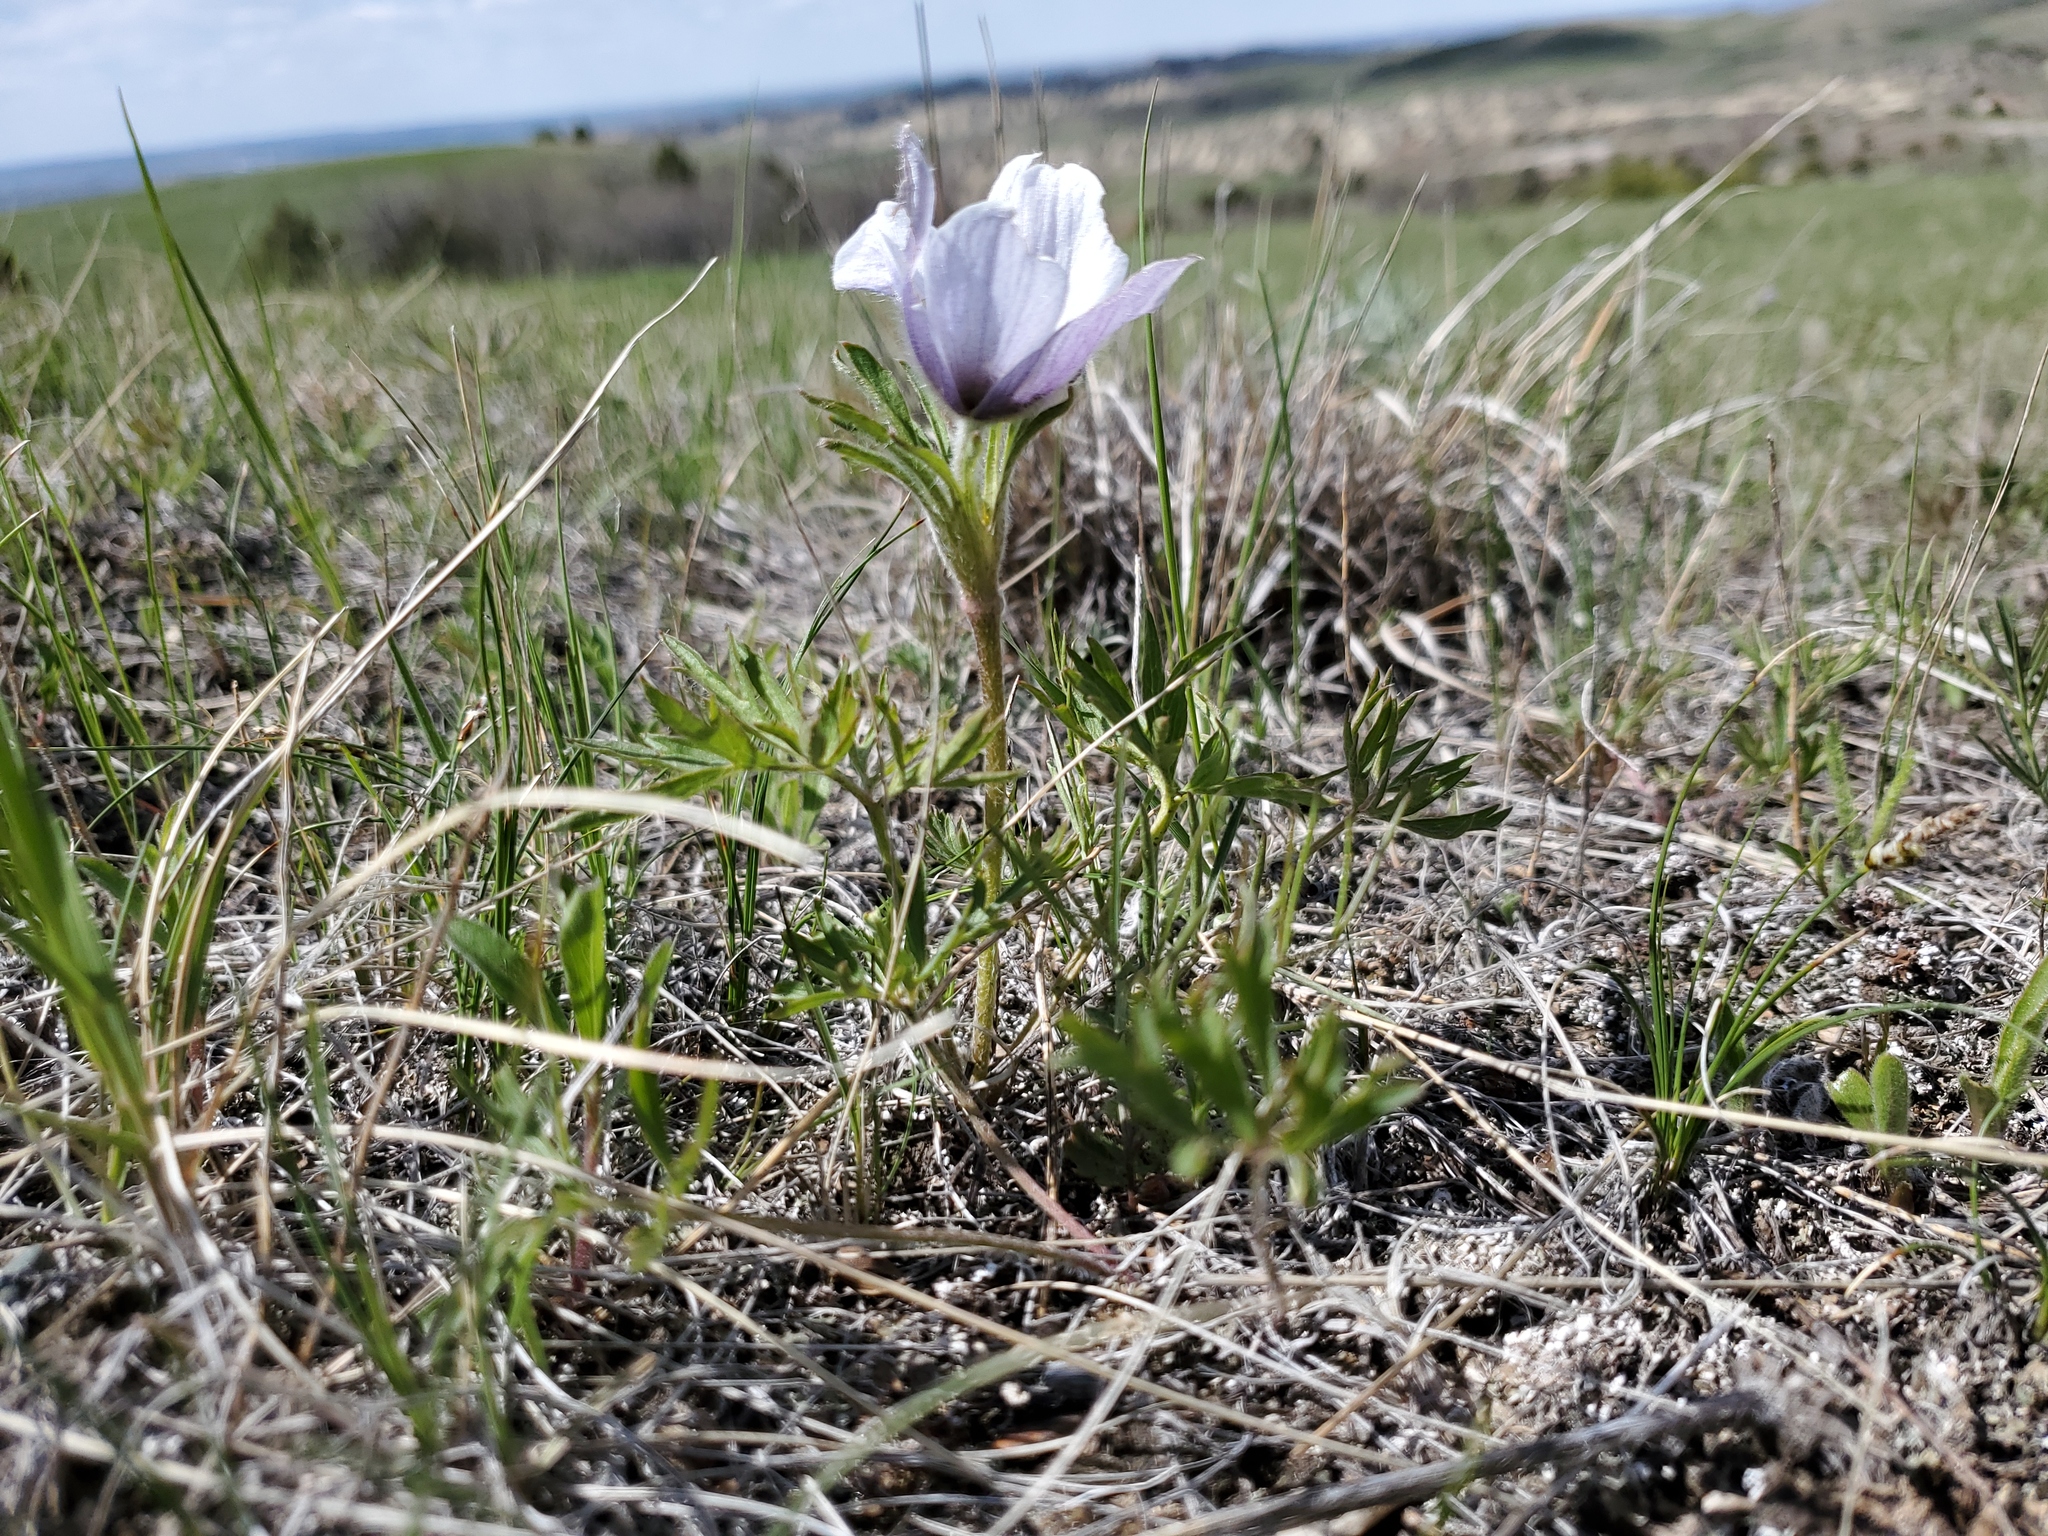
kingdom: Plantae
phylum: Tracheophyta
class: Magnoliopsida
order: Ranunculales
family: Ranunculaceae
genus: Pulsatilla
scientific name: Pulsatilla nuttalliana
